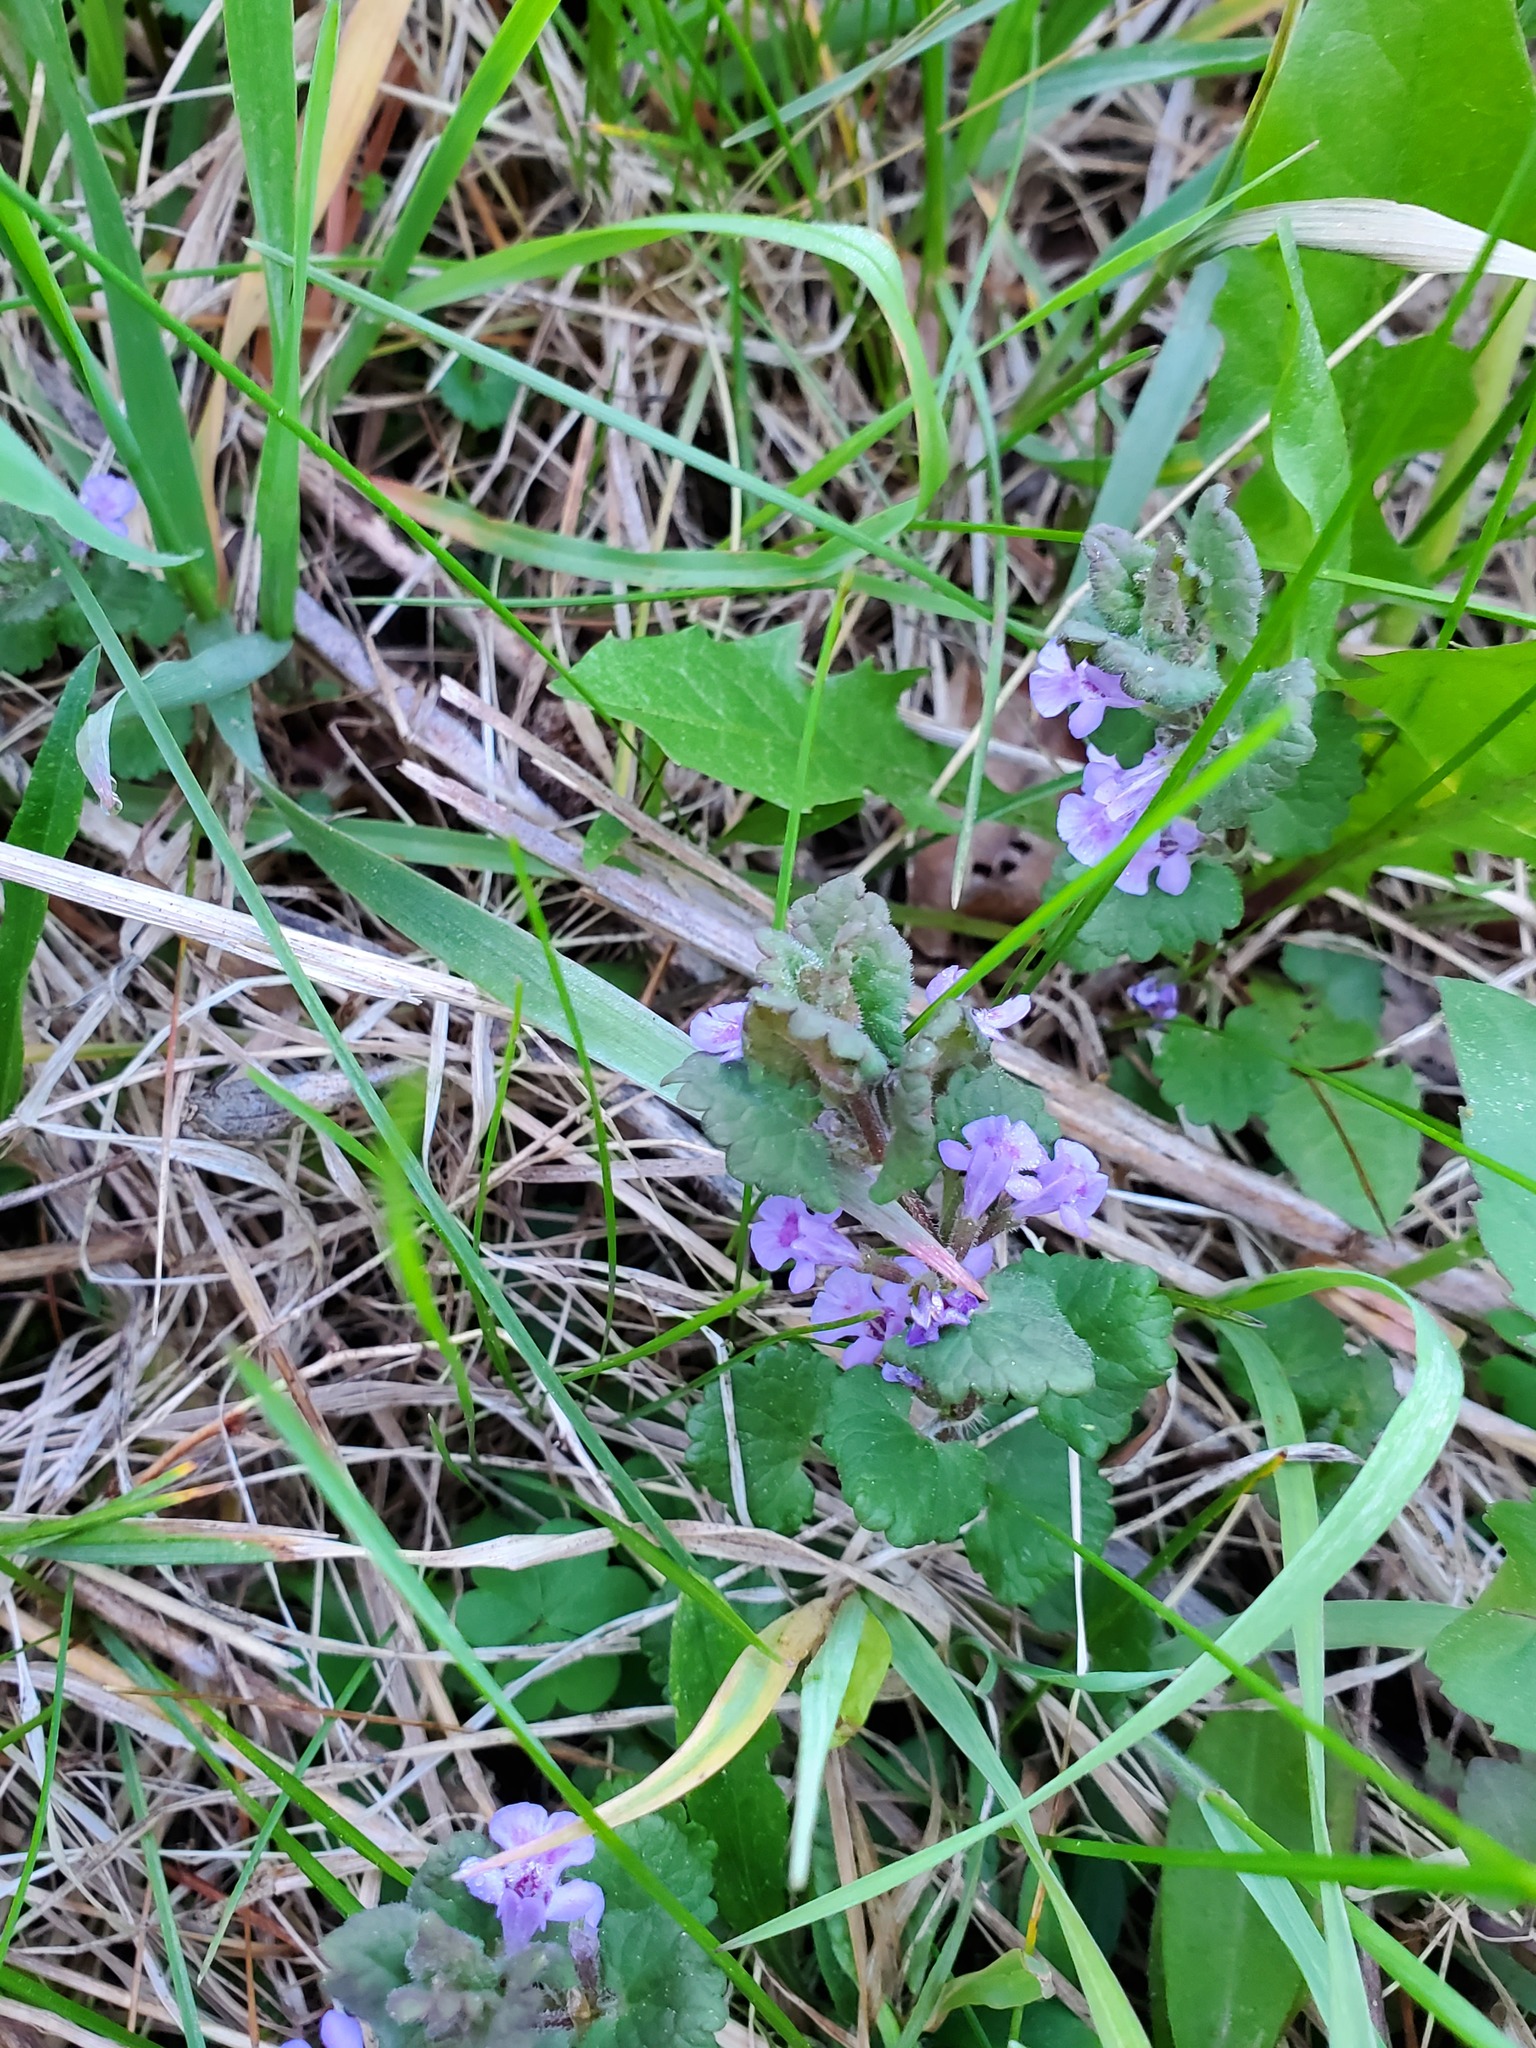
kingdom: Plantae
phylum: Tracheophyta
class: Magnoliopsida
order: Lamiales
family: Lamiaceae
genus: Glechoma
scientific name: Glechoma hederacea
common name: Ground ivy
